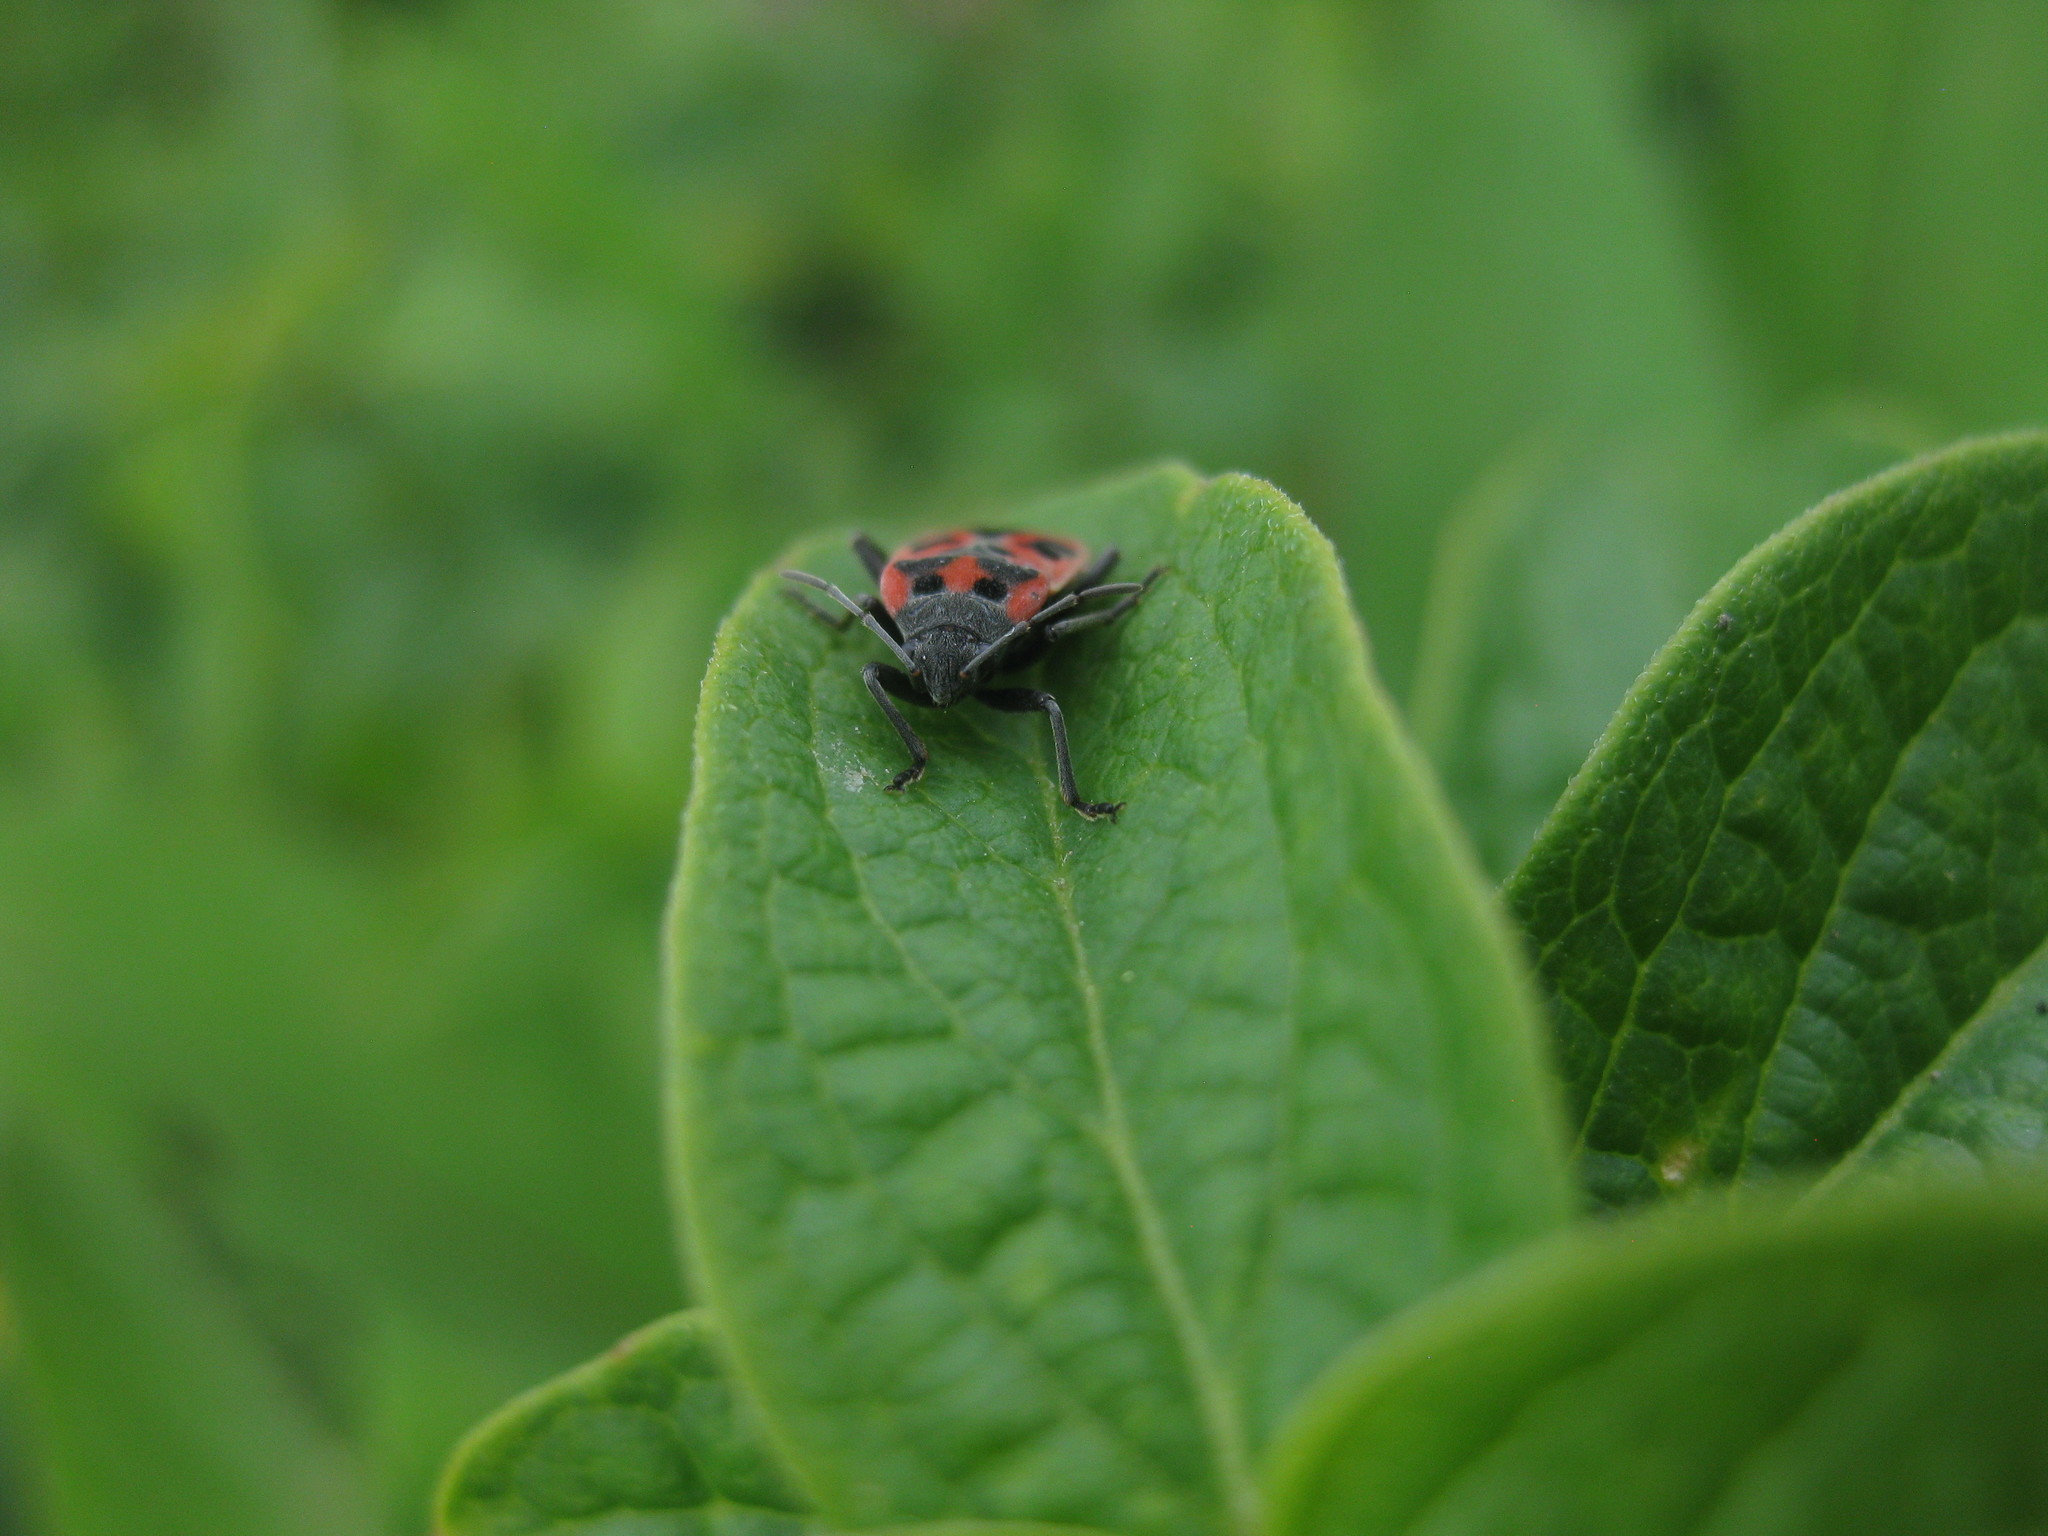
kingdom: Animalia
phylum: Arthropoda
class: Insecta
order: Hemiptera
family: Lygaeidae
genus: Lygaeus
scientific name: Lygaeus vicarius
